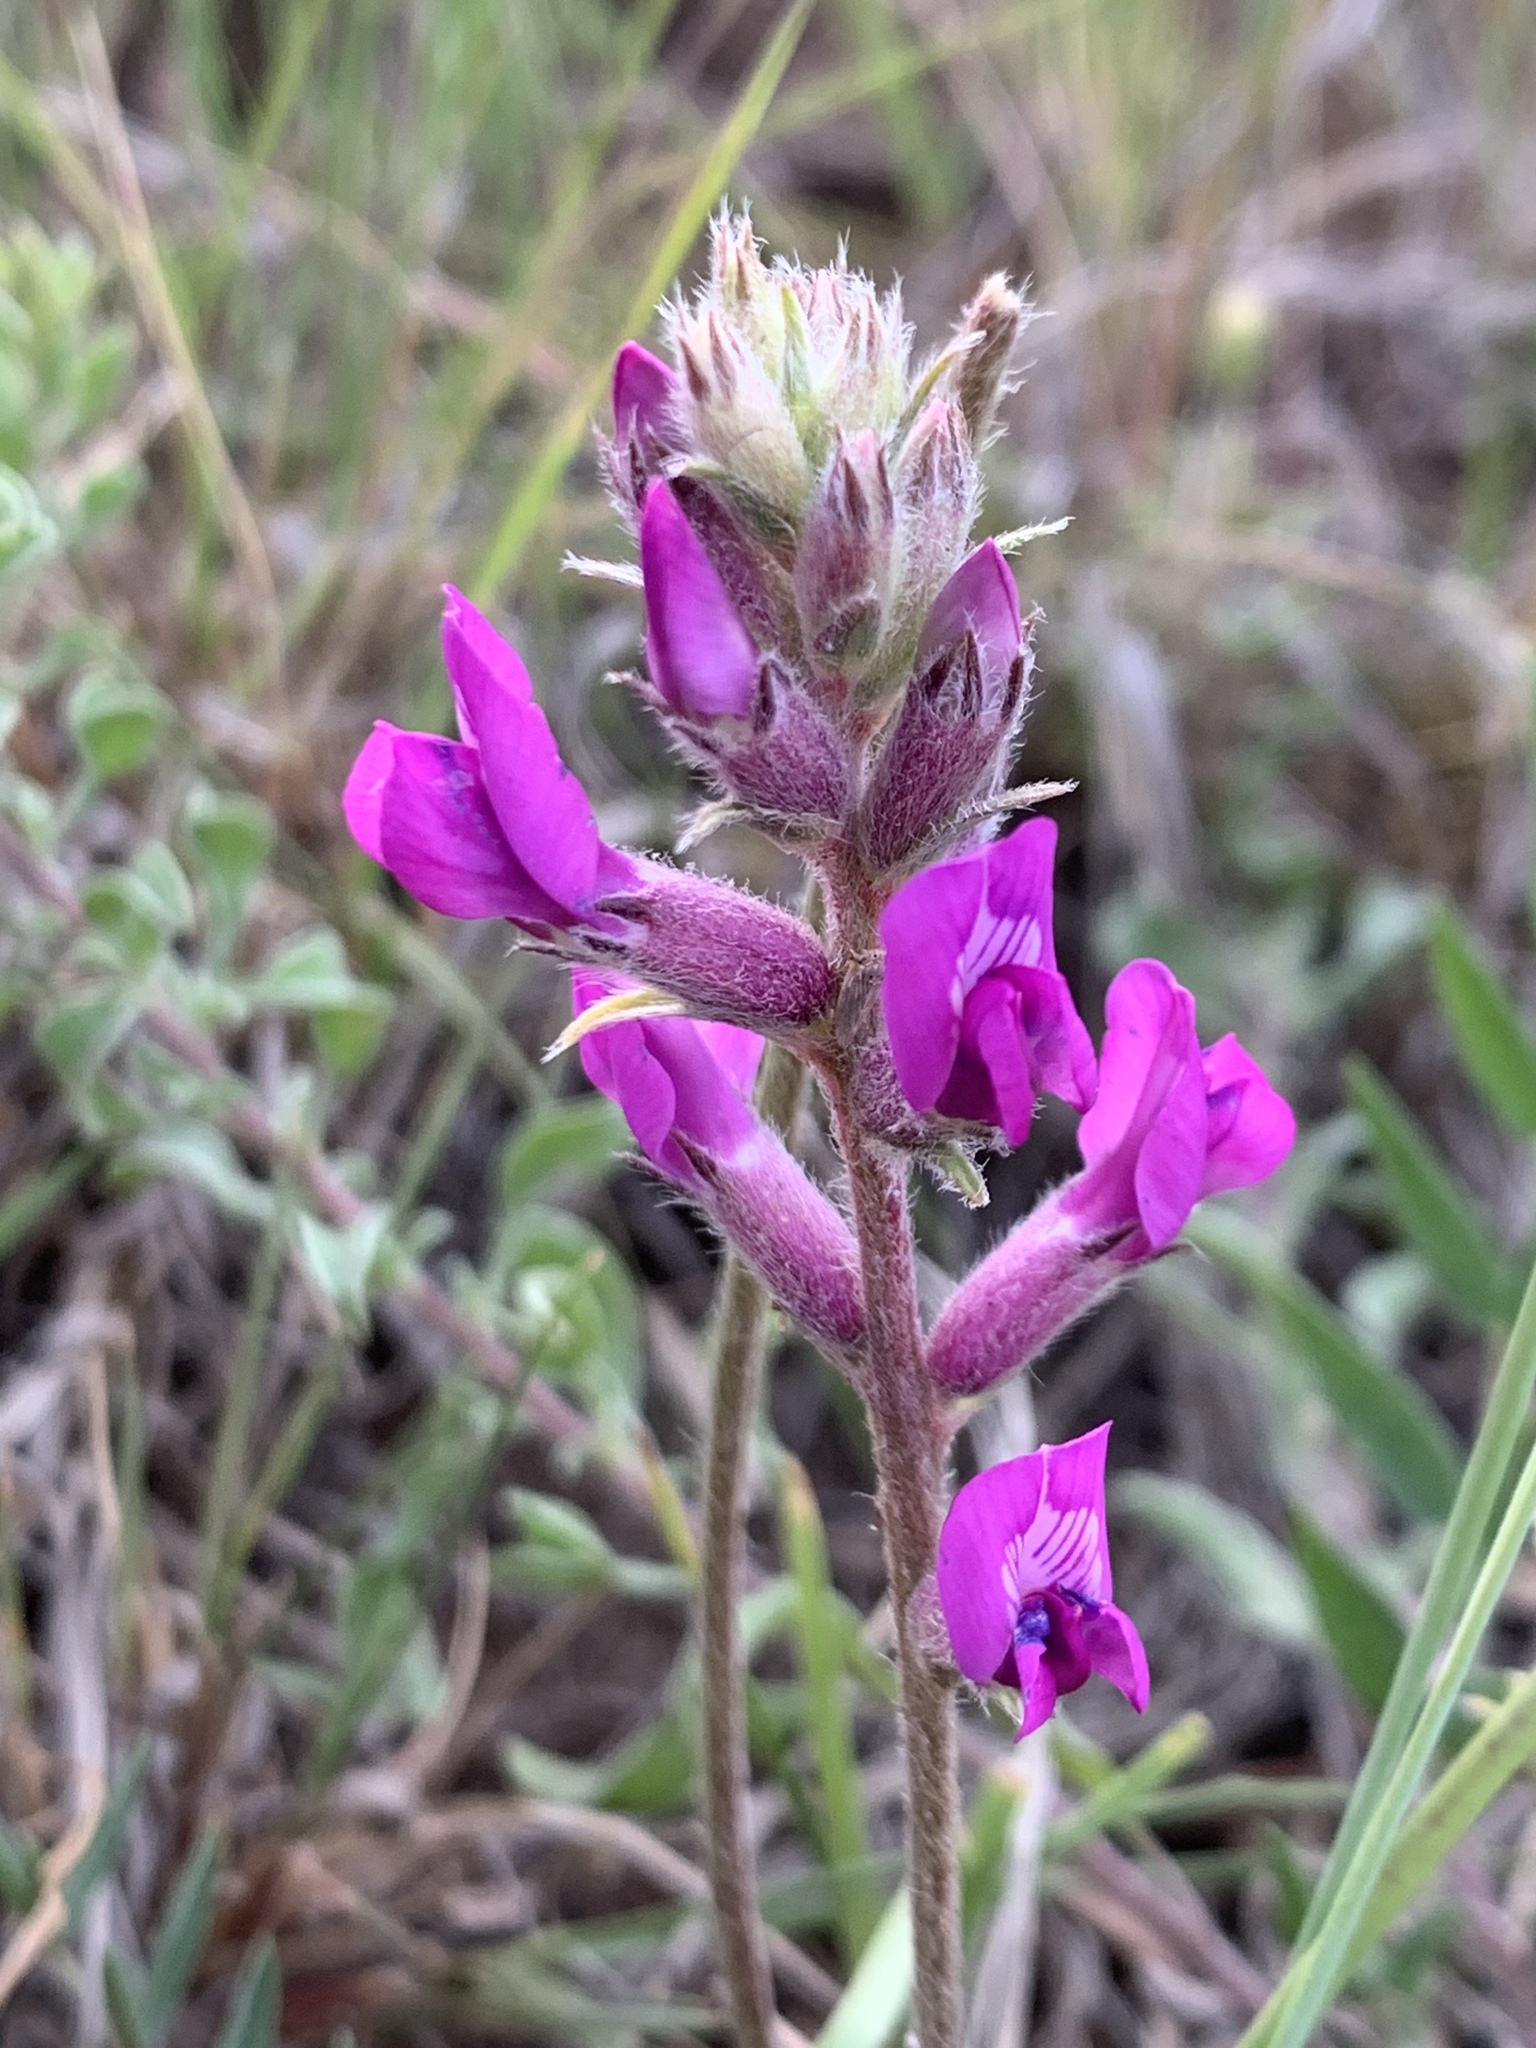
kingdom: Plantae
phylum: Tracheophyta
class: Magnoliopsida
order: Fabales
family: Fabaceae
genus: Oxytropis
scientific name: Oxytropis lambertii
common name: Purple locoweed
